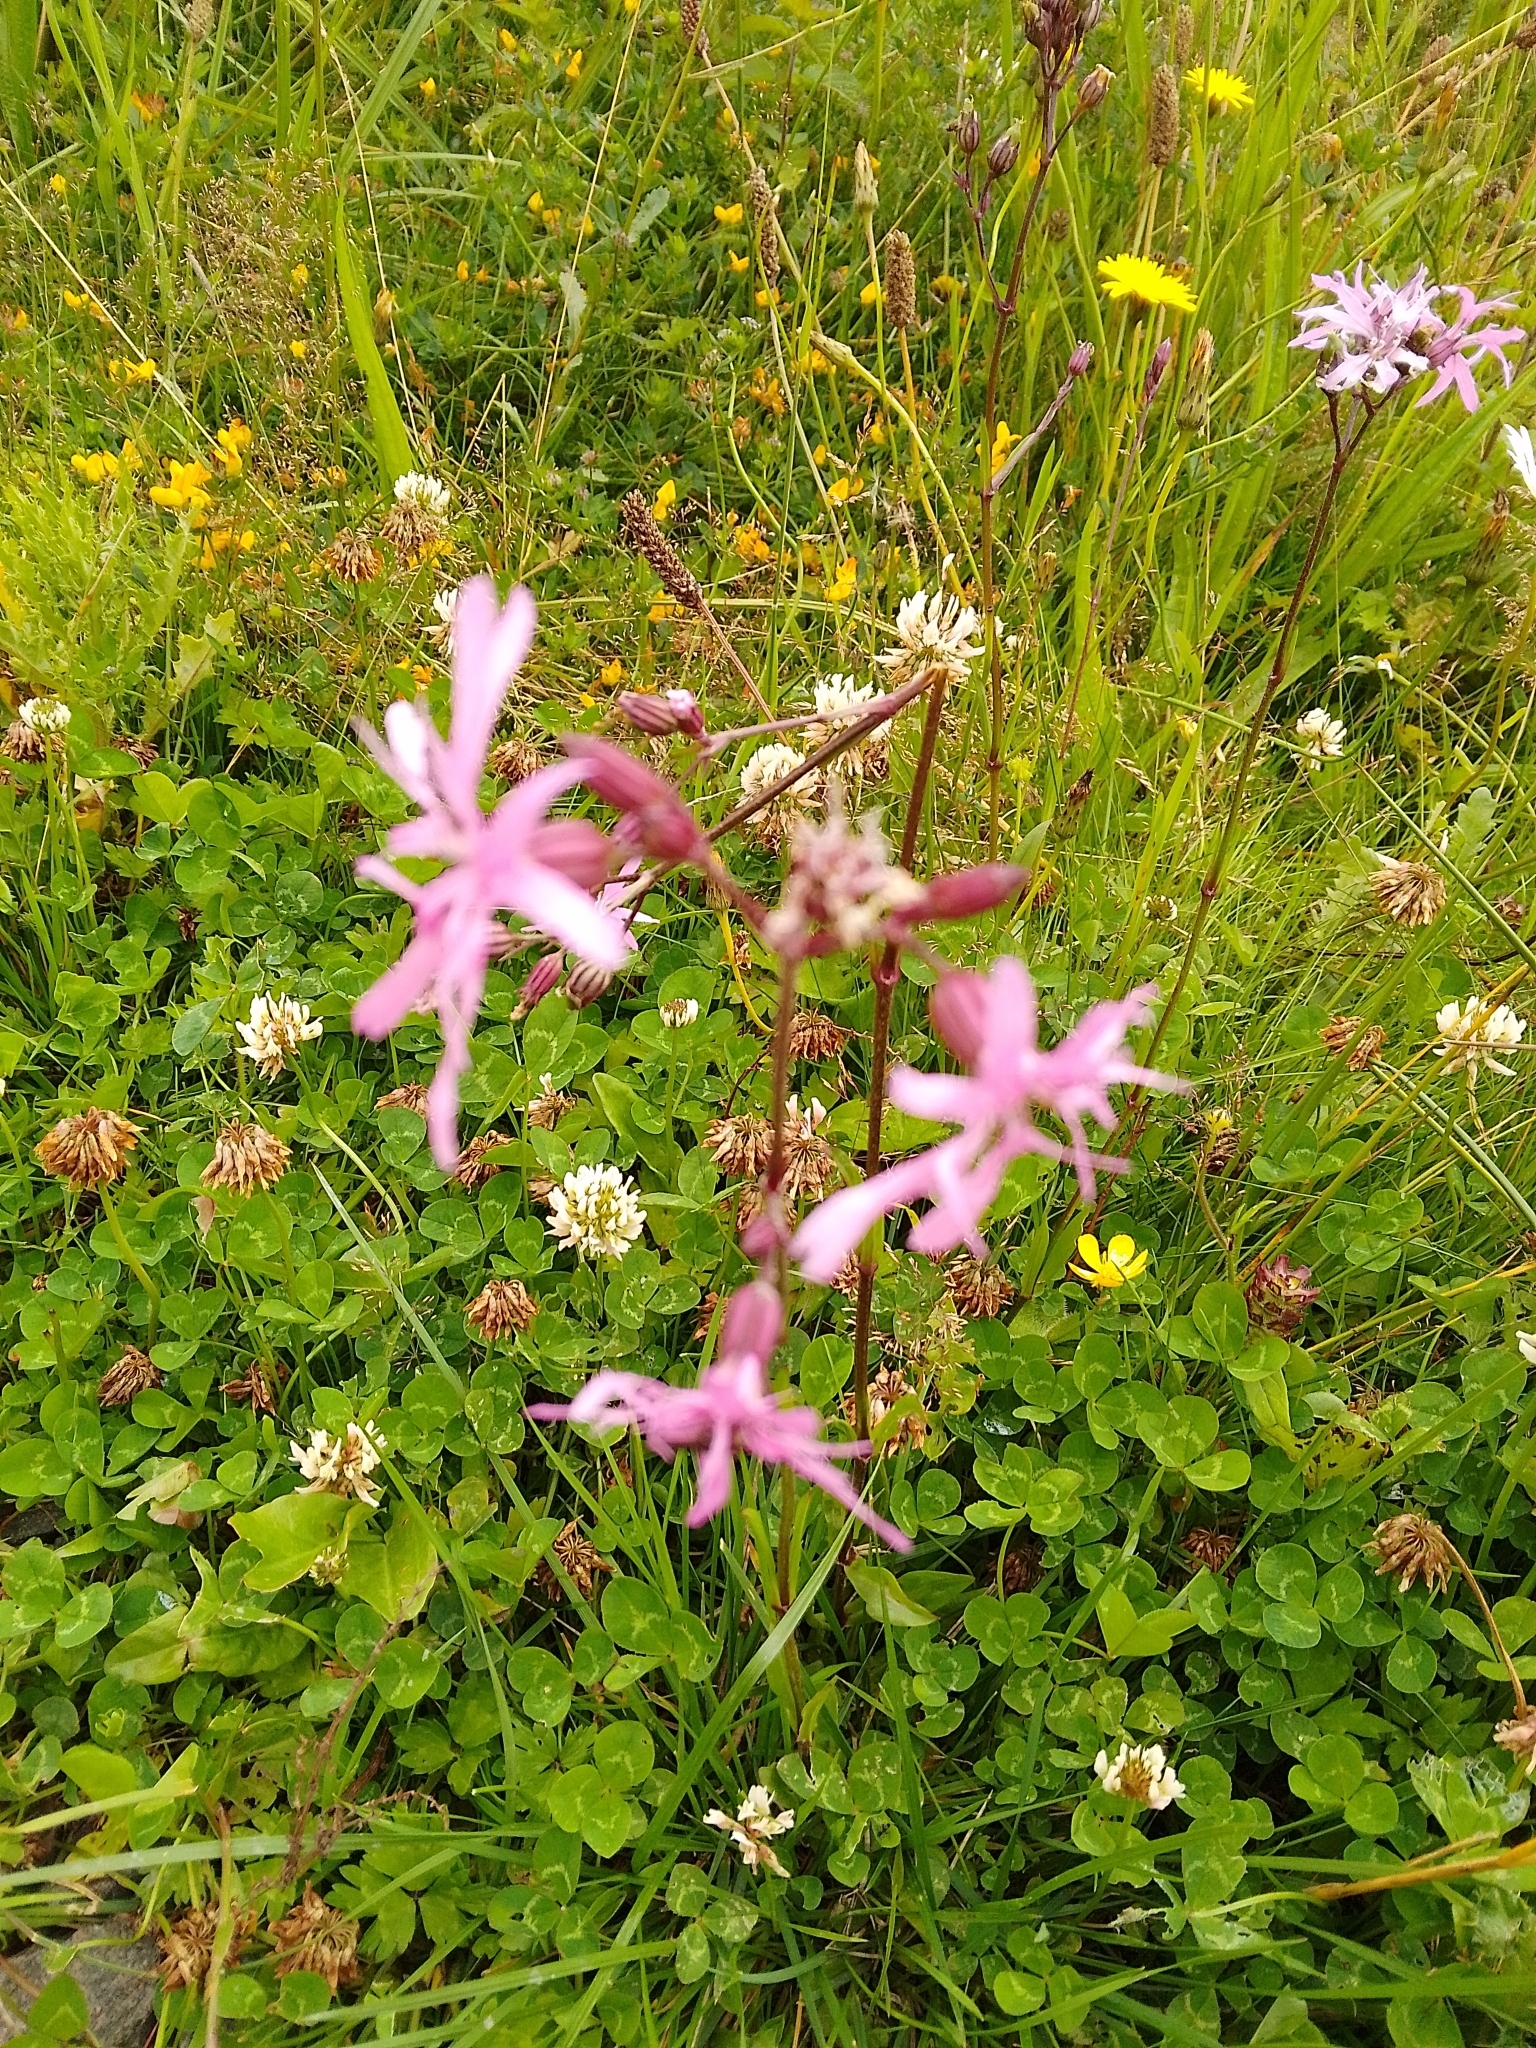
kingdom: Plantae
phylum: Tracheophyta
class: Magnoliopsida
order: Caryophyllales
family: Caryophyllaceae
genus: Silene
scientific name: Silene flos-cuculi
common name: Ragged-robin
